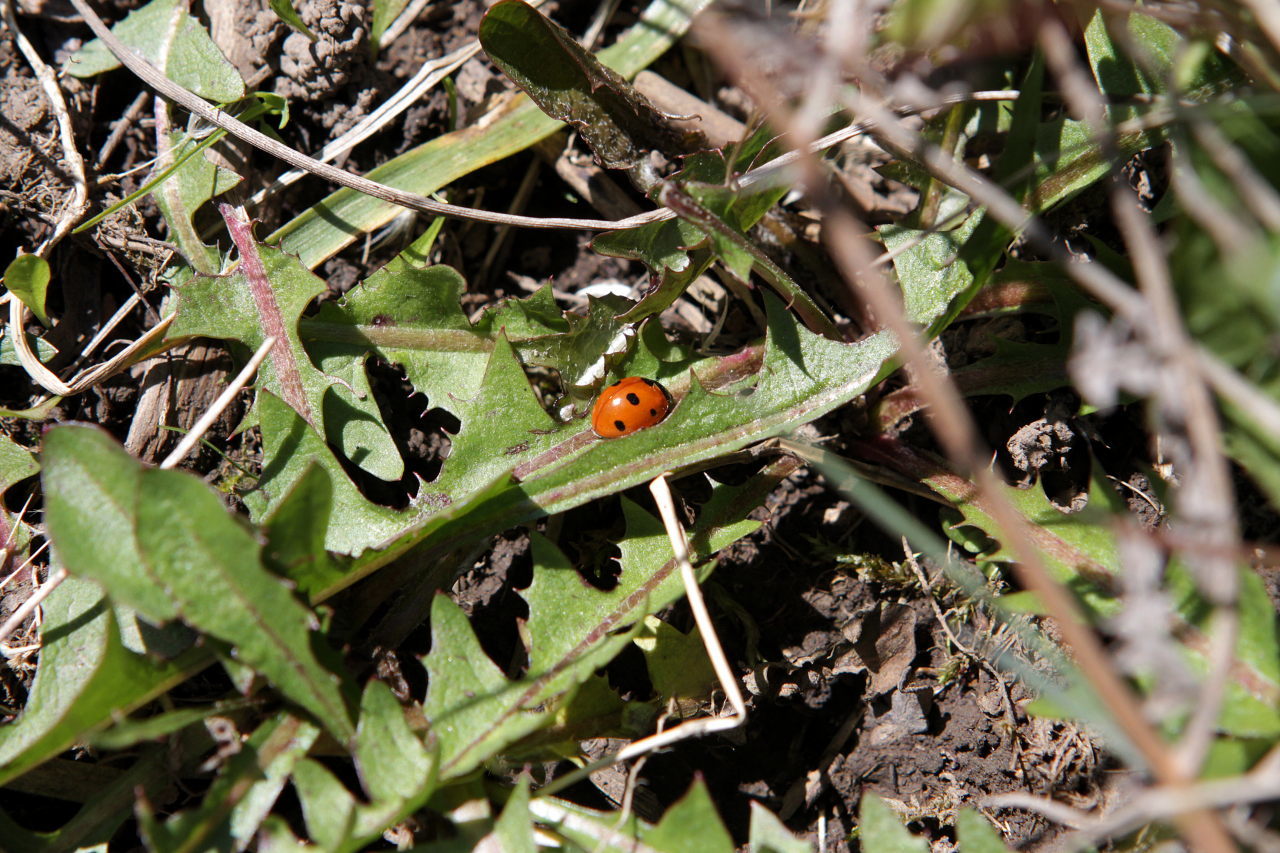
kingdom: Animalia
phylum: Arthropoda
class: Insecta
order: Coleoptera
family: Coccinellidae
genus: Coccinella
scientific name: Coccinella septempunctata
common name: Sevenspotted lady beetle
